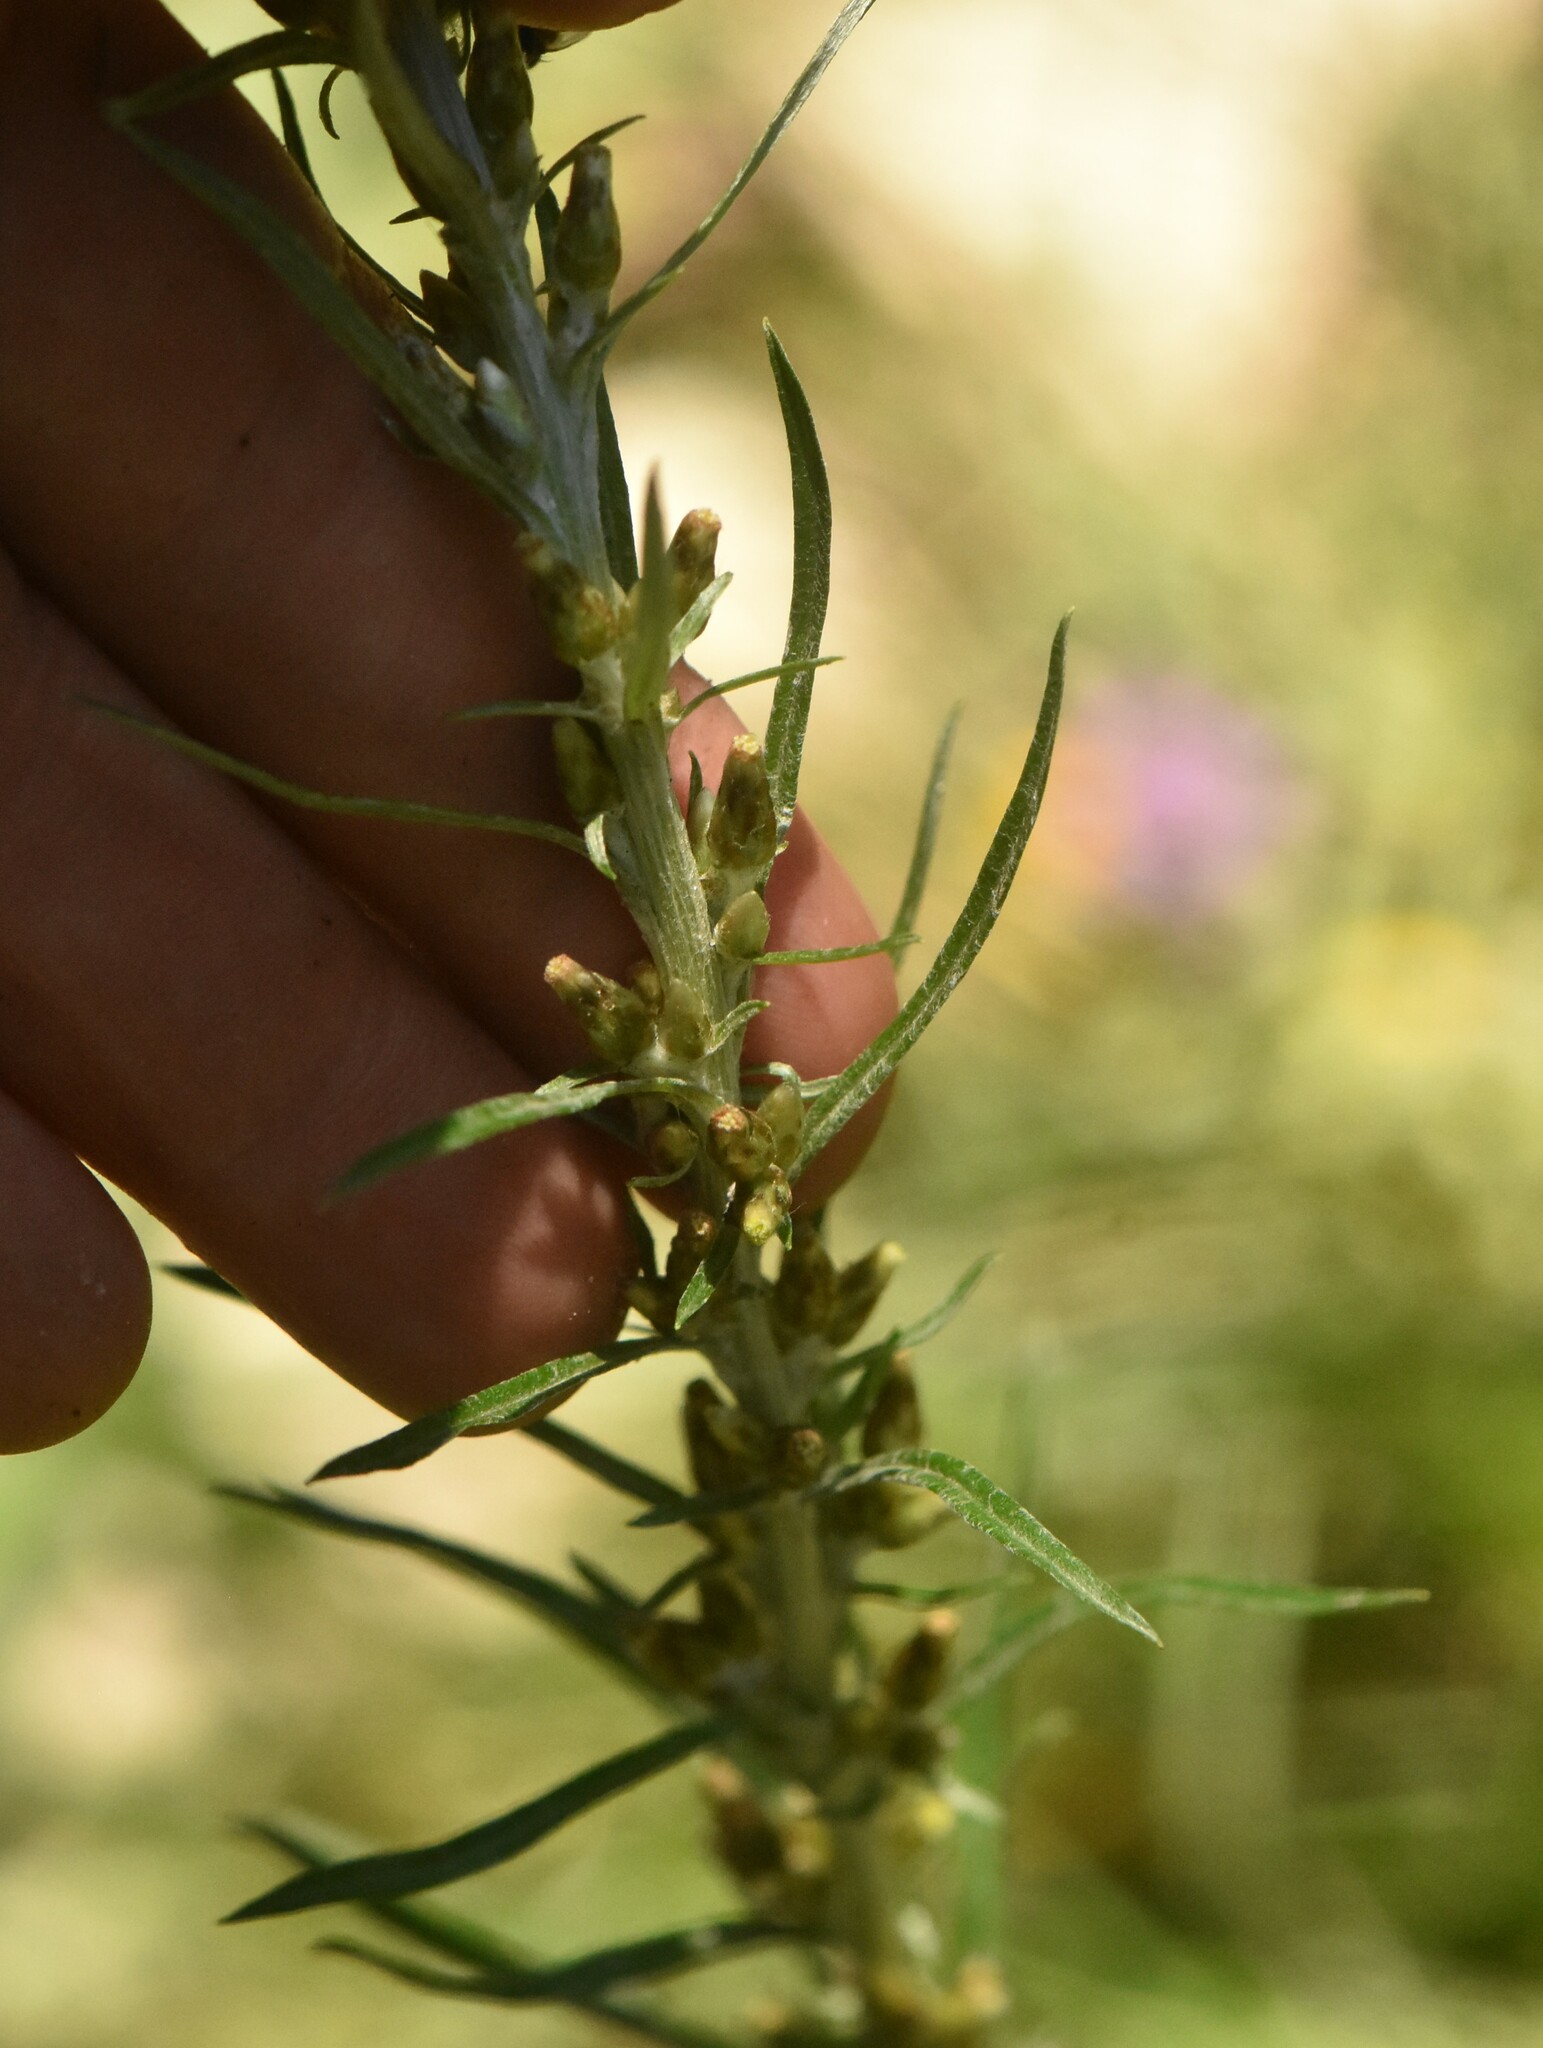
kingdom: Plantae
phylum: Tracheophyta
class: Magnoliopsida
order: Asterales
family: Asteraceae
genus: Omalotheca
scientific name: Omalotheca sylvatica
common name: Heath cudweed
